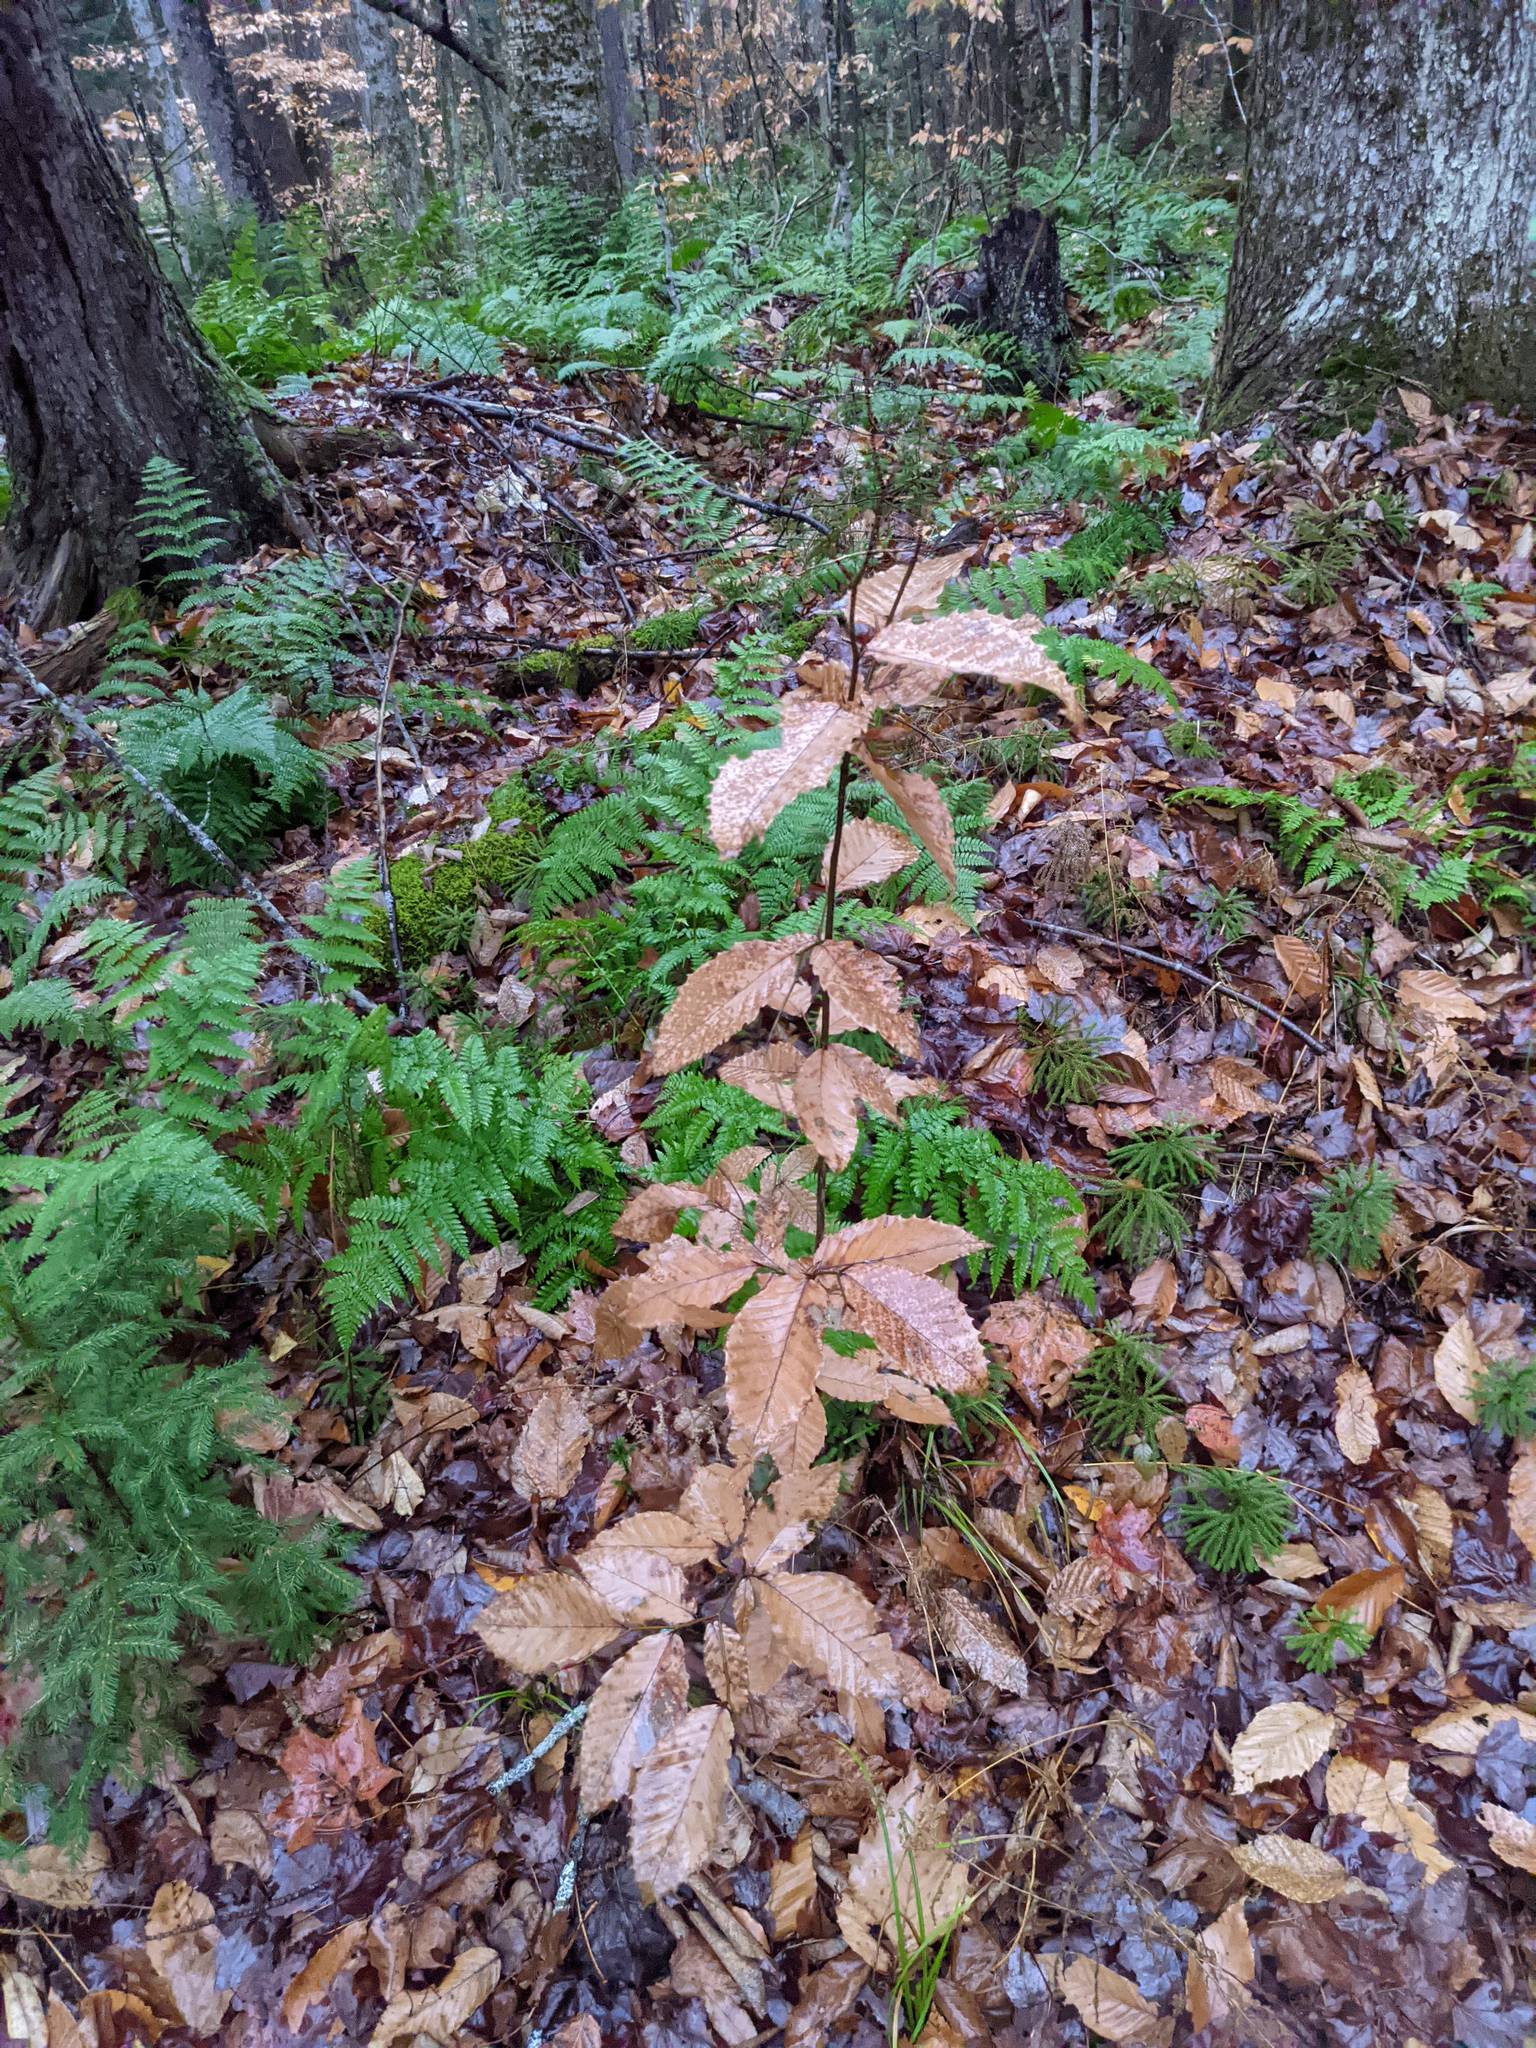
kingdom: Plantae
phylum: Tracheophyta
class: Magnoliopsida
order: Fagales
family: Fagaceae
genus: Fagus
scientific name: Fagus grandifolia
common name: American beech
